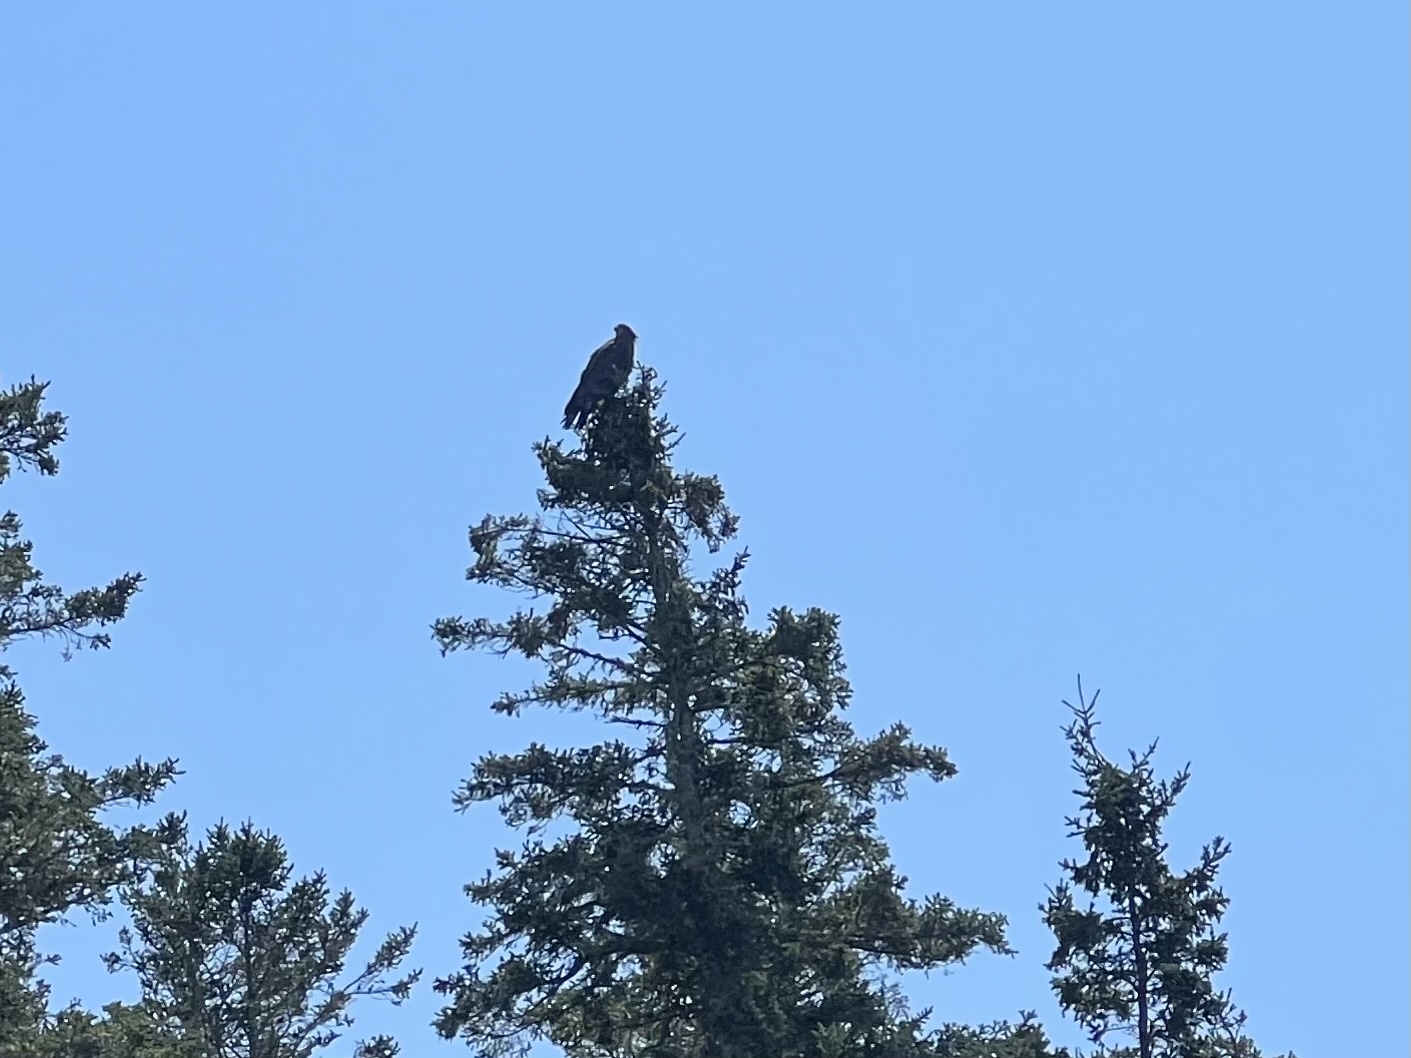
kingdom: Animalia
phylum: Chordata
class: Aves
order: Accipitriformes
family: Accipitridae
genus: Haliaeetus
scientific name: Haliaeetus leucocephalus
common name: Bald eagle
